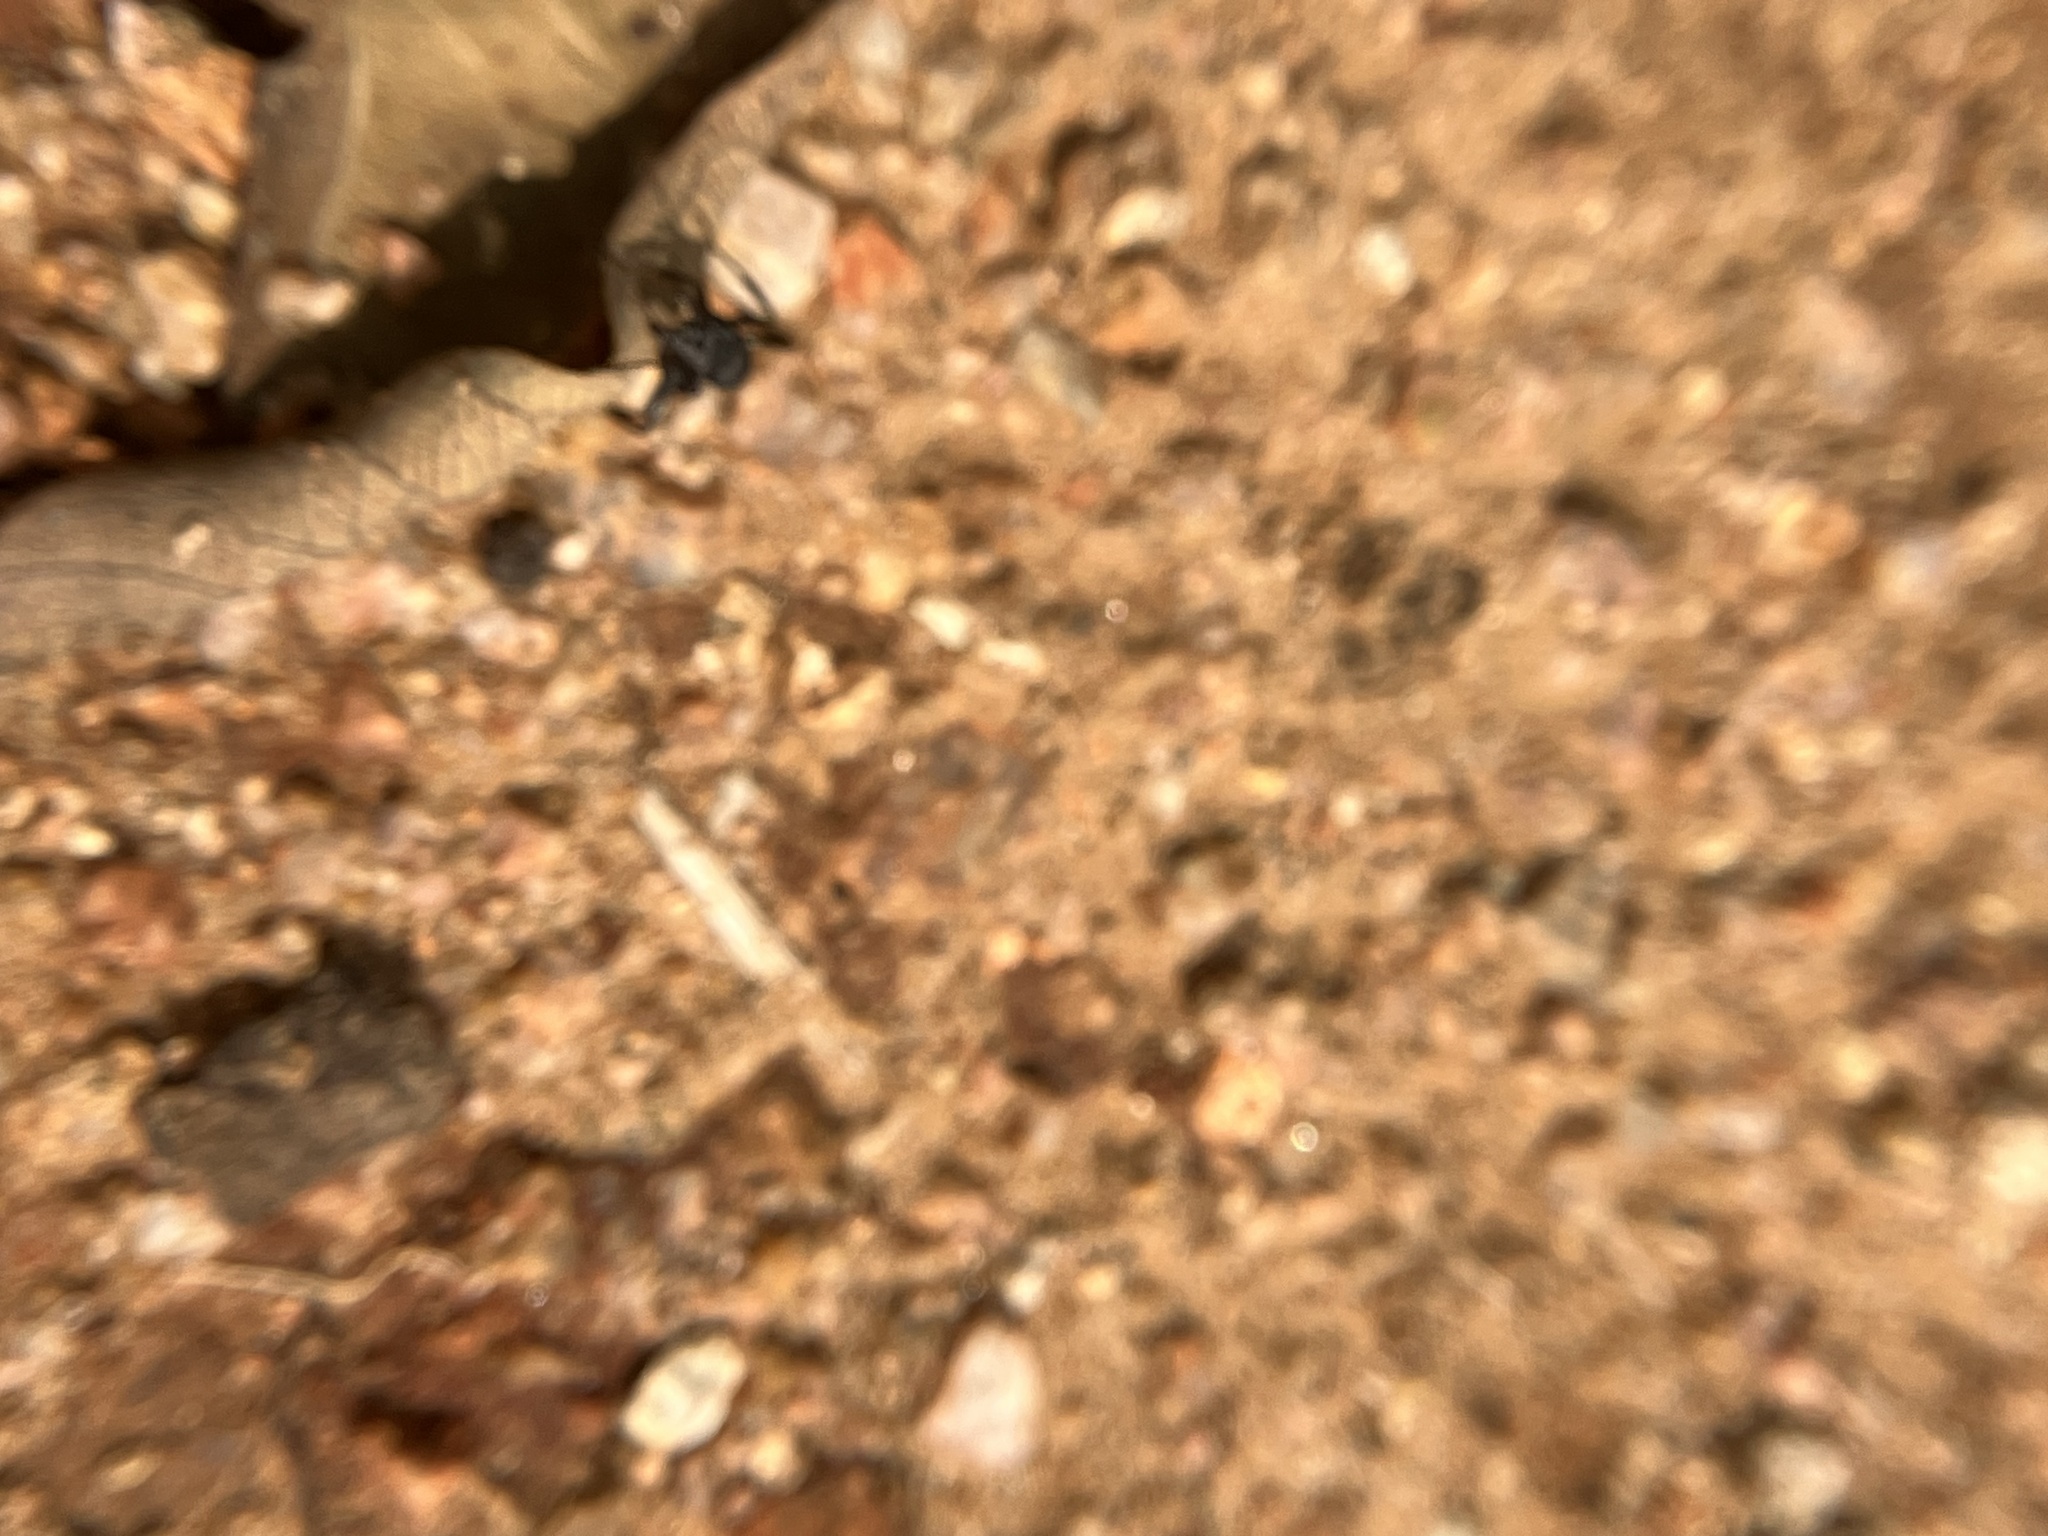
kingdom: Animalia
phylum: Arthropoda
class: Insecta
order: Hymenoptera
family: Formicidae
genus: Camponotus
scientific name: Camponotus sericeus
